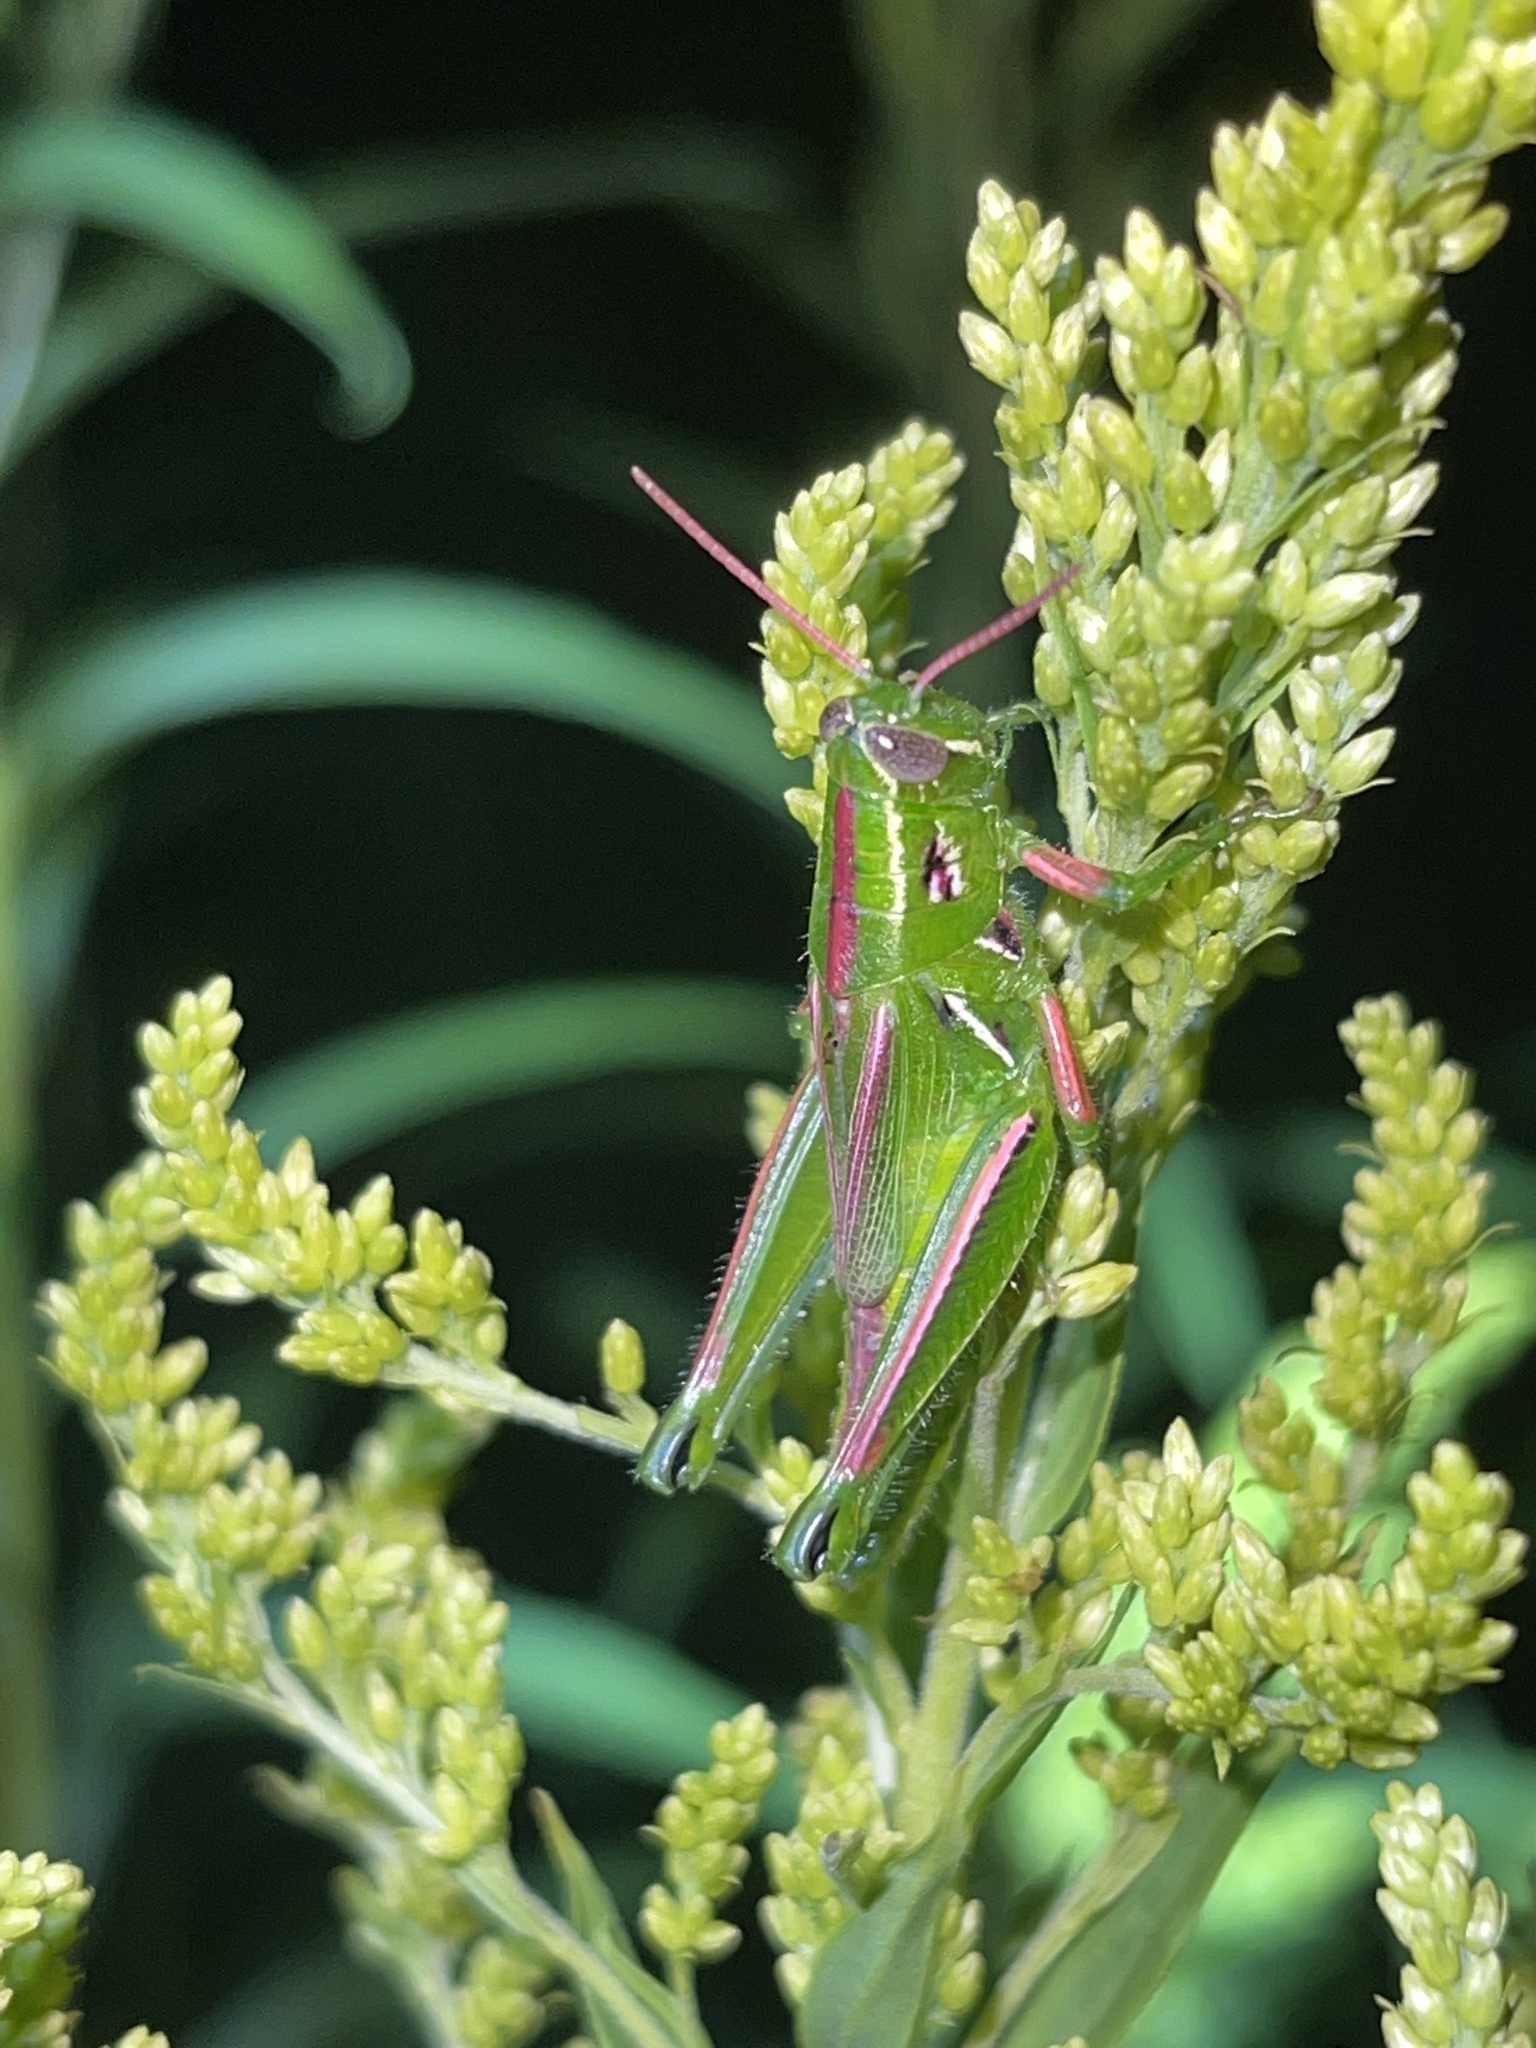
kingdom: Animalia
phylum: Arthropoda
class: Insecta
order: Orthoptera
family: Acrididae
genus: Hesperotettix
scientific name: Hesperotettix viridis
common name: Meadow purple-striped grasshopper
